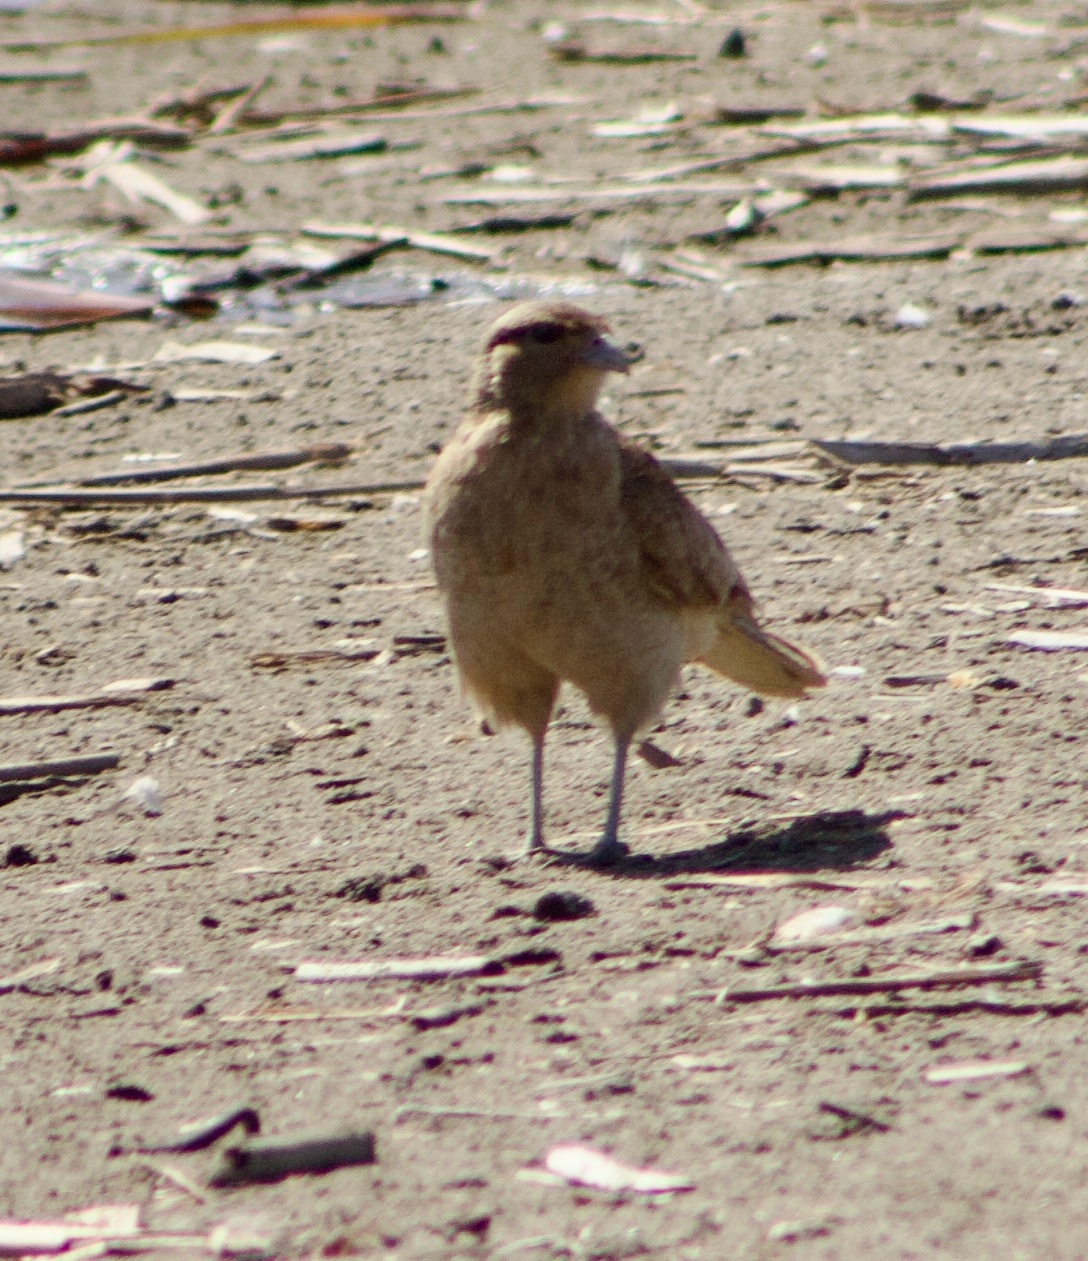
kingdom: Animalia
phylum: Chordata
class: Aves
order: Falconiformes
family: Falconidae
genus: Daptrius
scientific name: Daptrius
